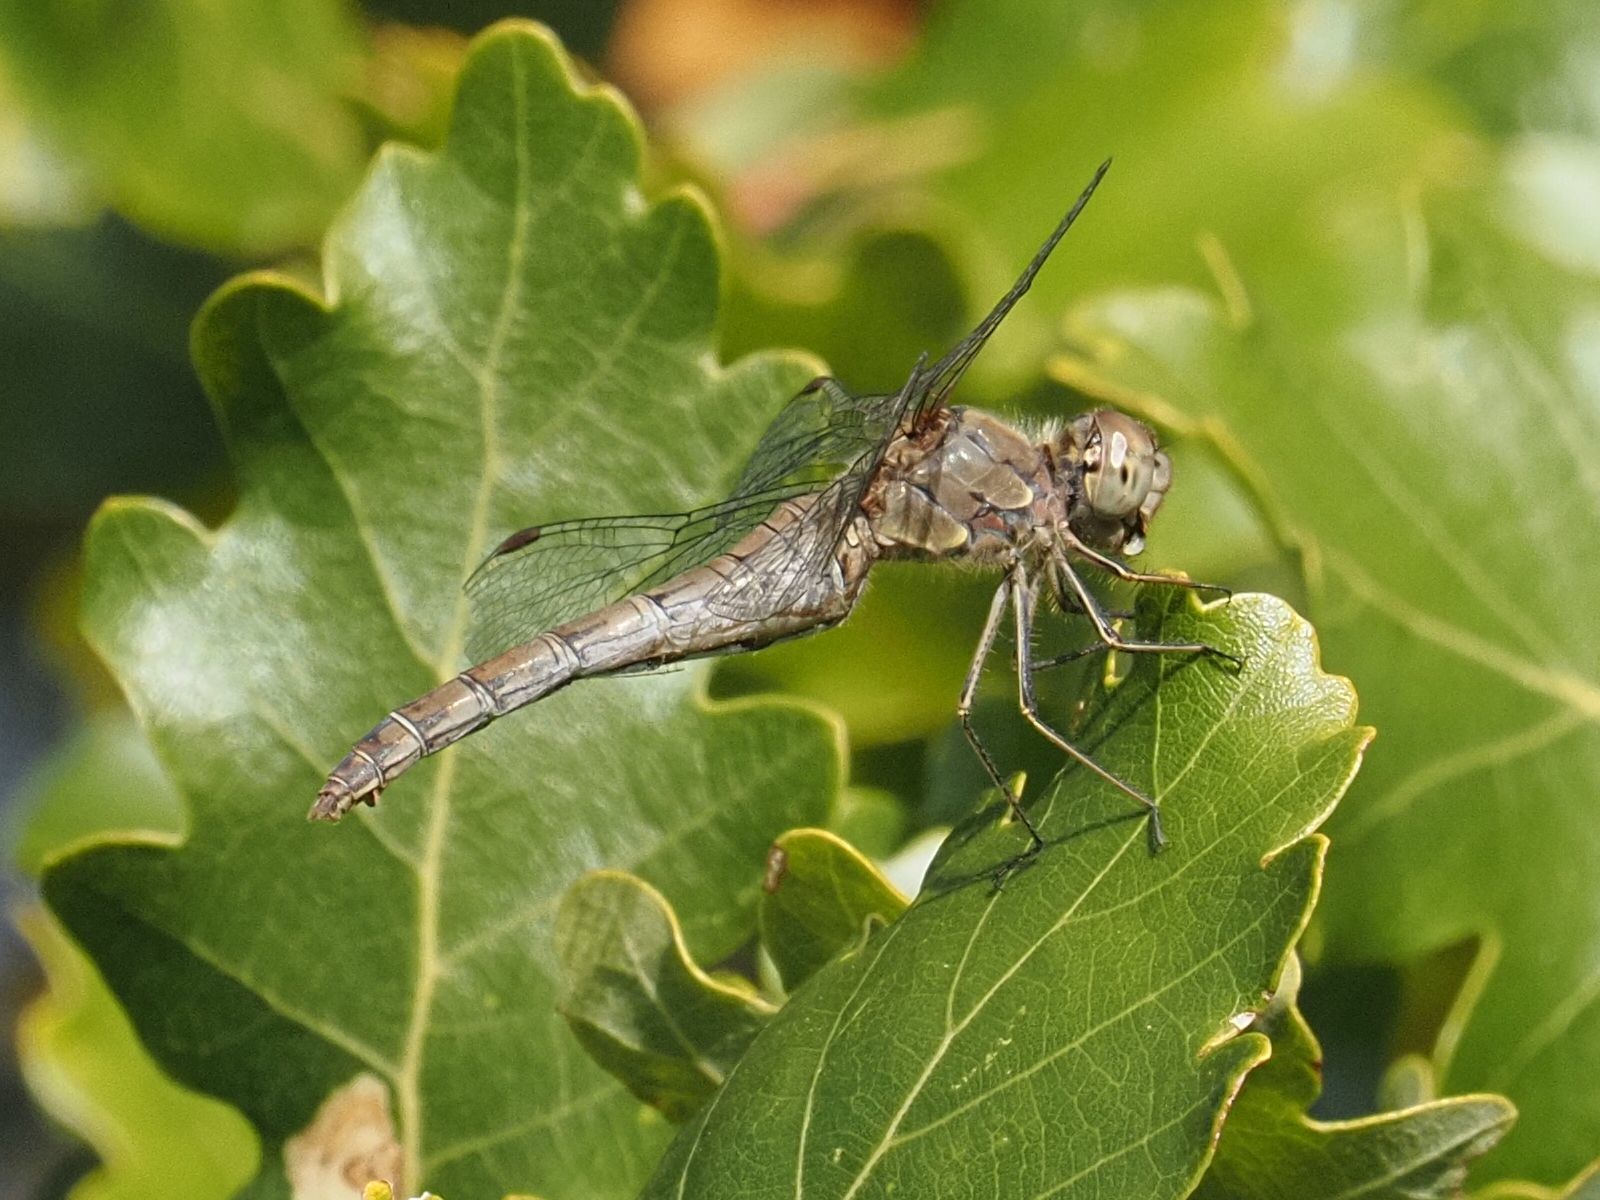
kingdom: Animalia
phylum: Arthropoda
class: Insecta
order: Odonata
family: Libellulidae
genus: Sympetrum
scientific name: Sympetrum striolatum
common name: Common darter
